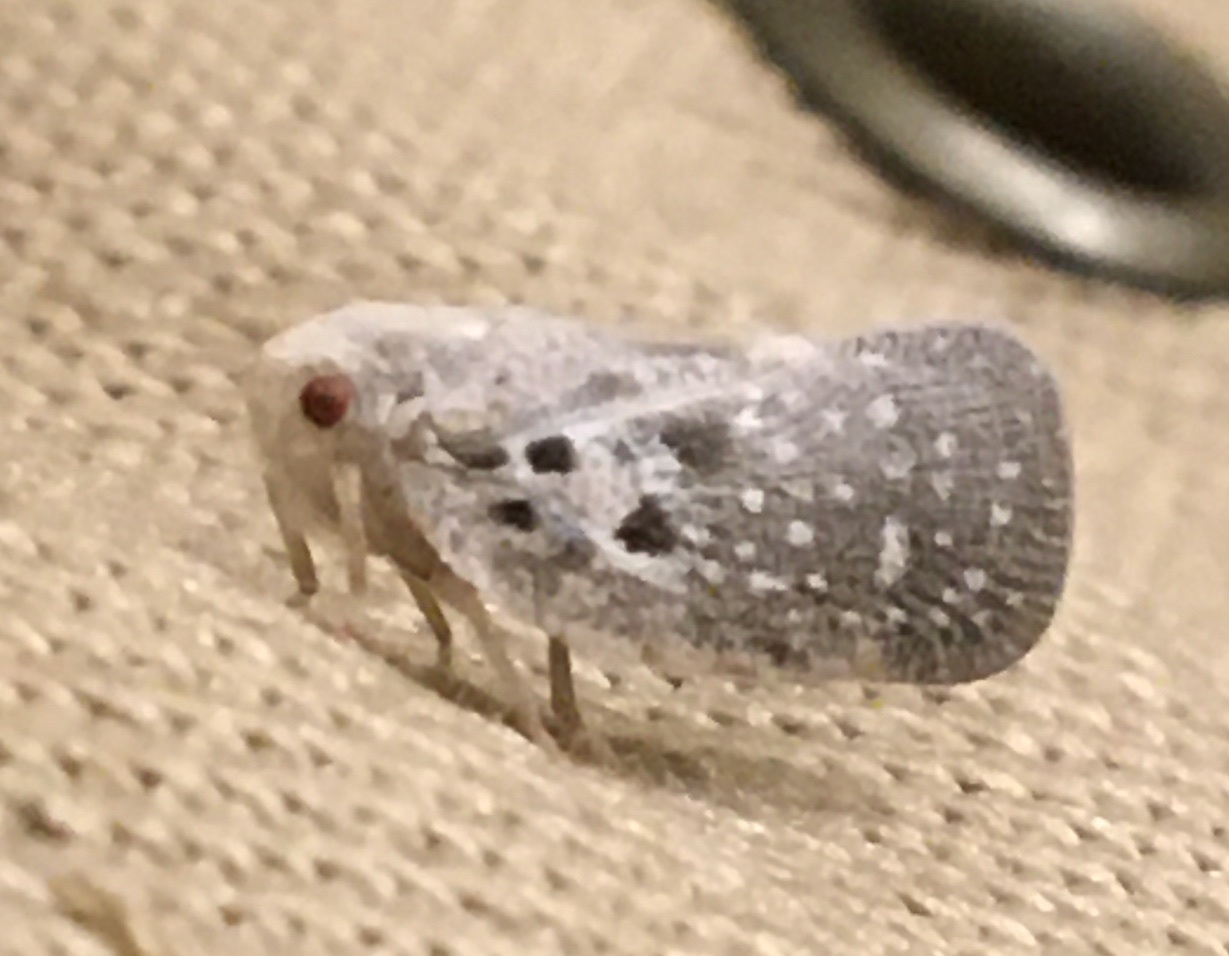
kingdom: Animalia
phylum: Arthropoda
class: Insecta
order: Hemiptera
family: Flatidae
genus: Metcalfa
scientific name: Metcalfa pruinosa
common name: Citrus flatid planthopper
